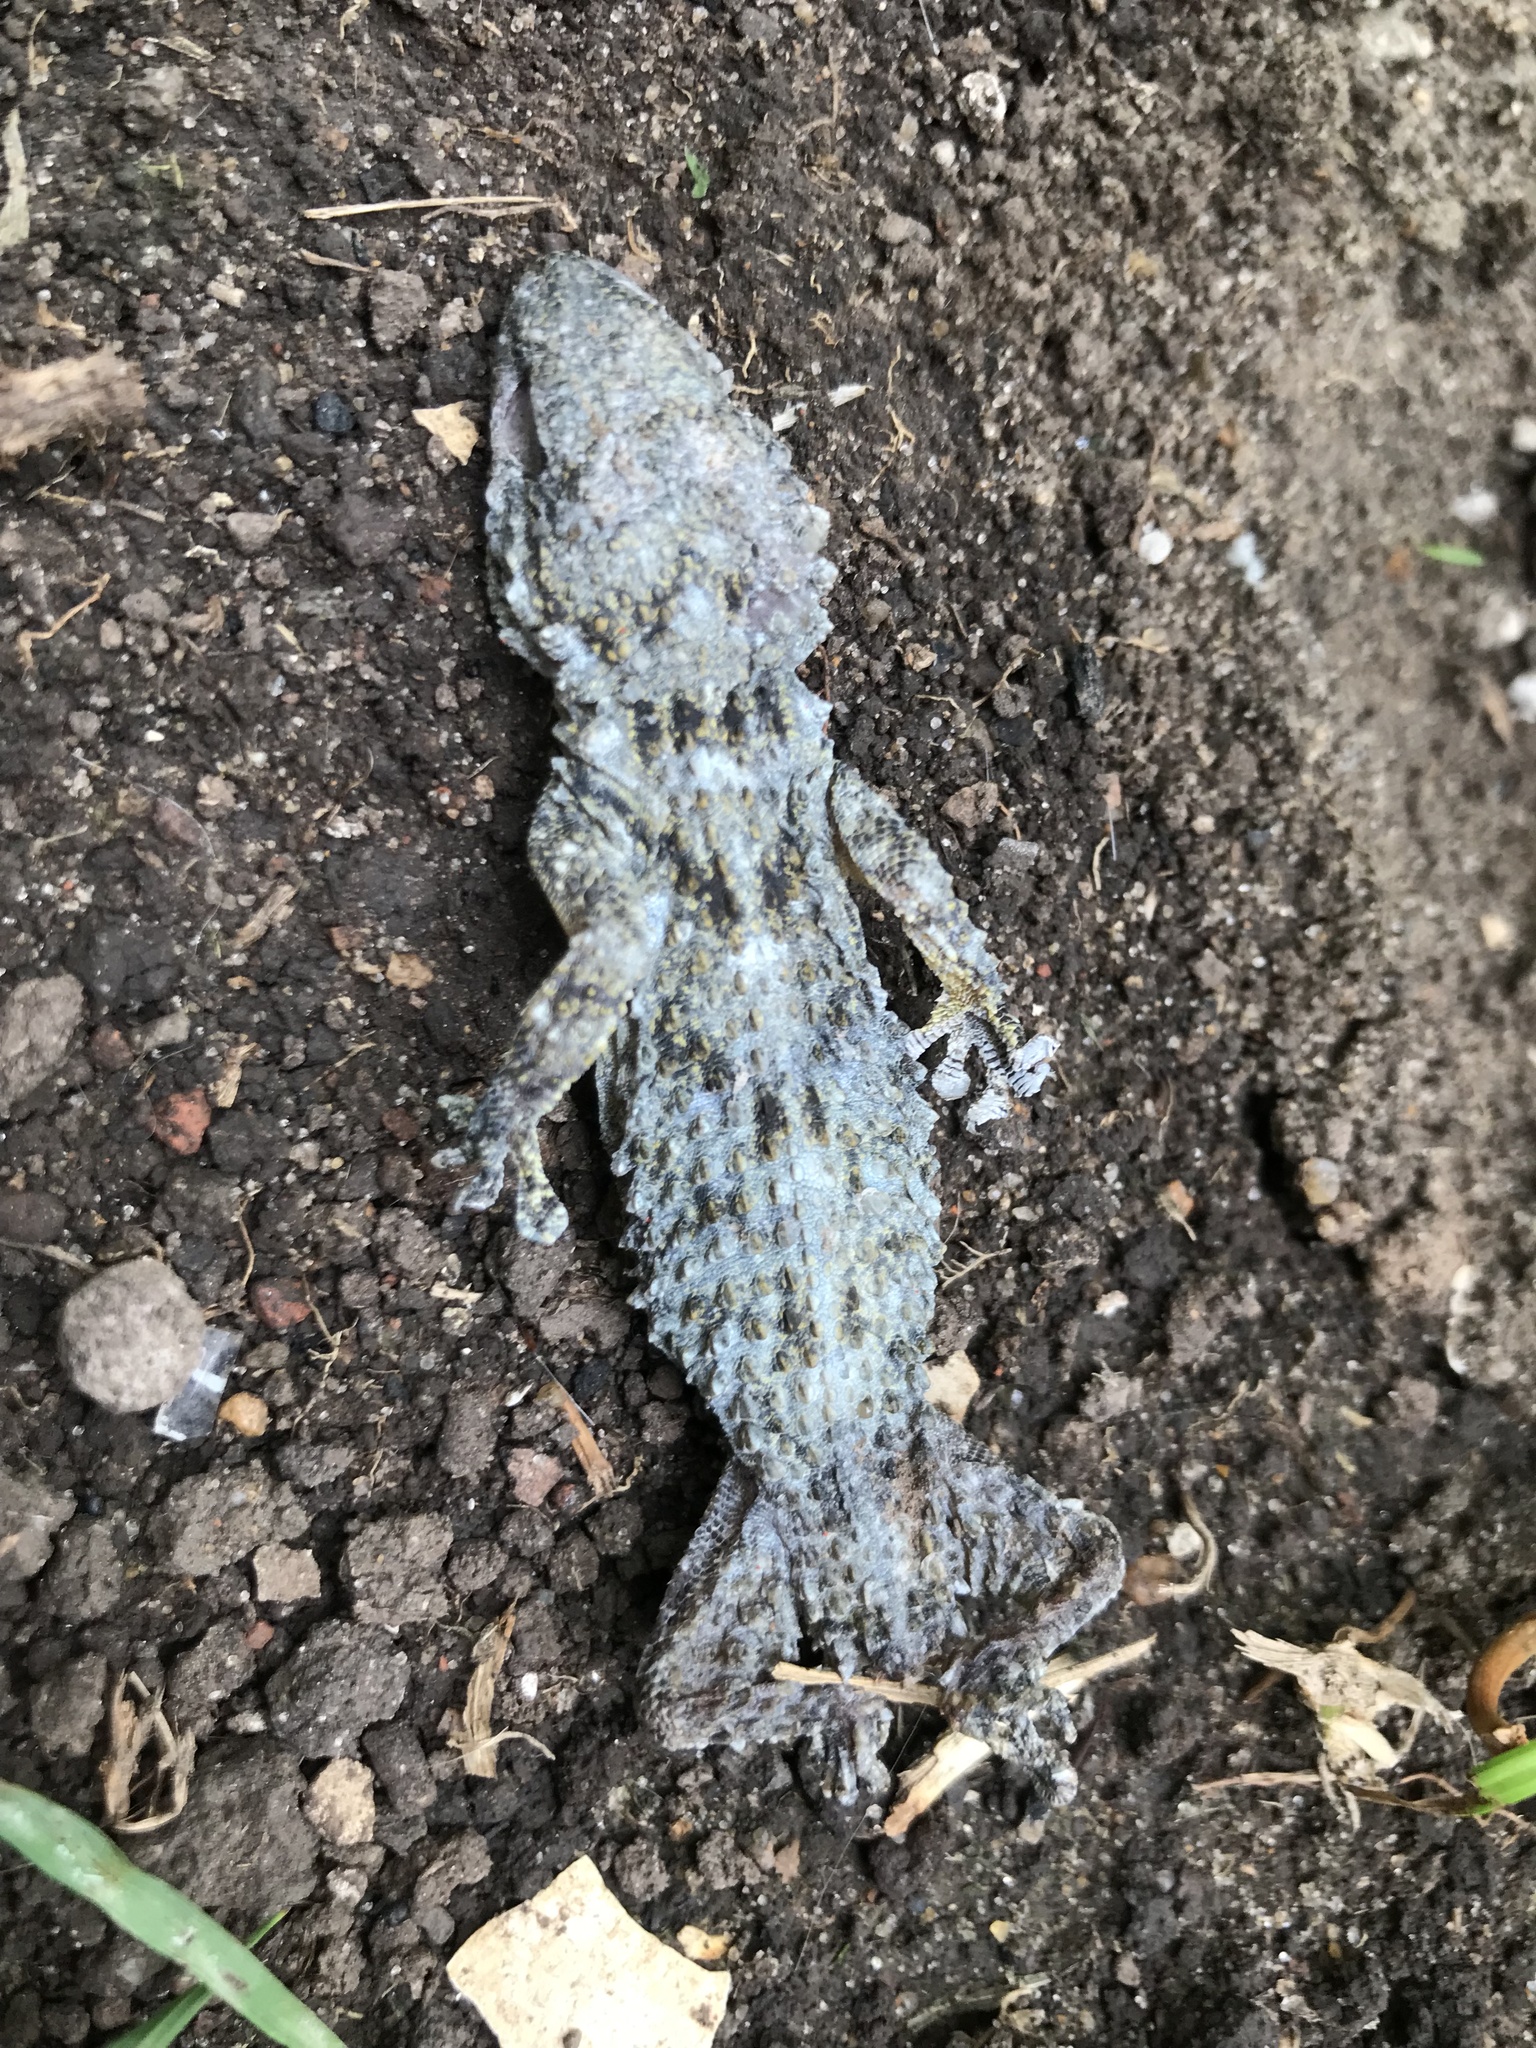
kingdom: Animalia
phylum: Chordata
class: Squamata
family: Phyllodactylidae
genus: Tarentola
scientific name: Tarentola mauritanica
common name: Moorish gecko
